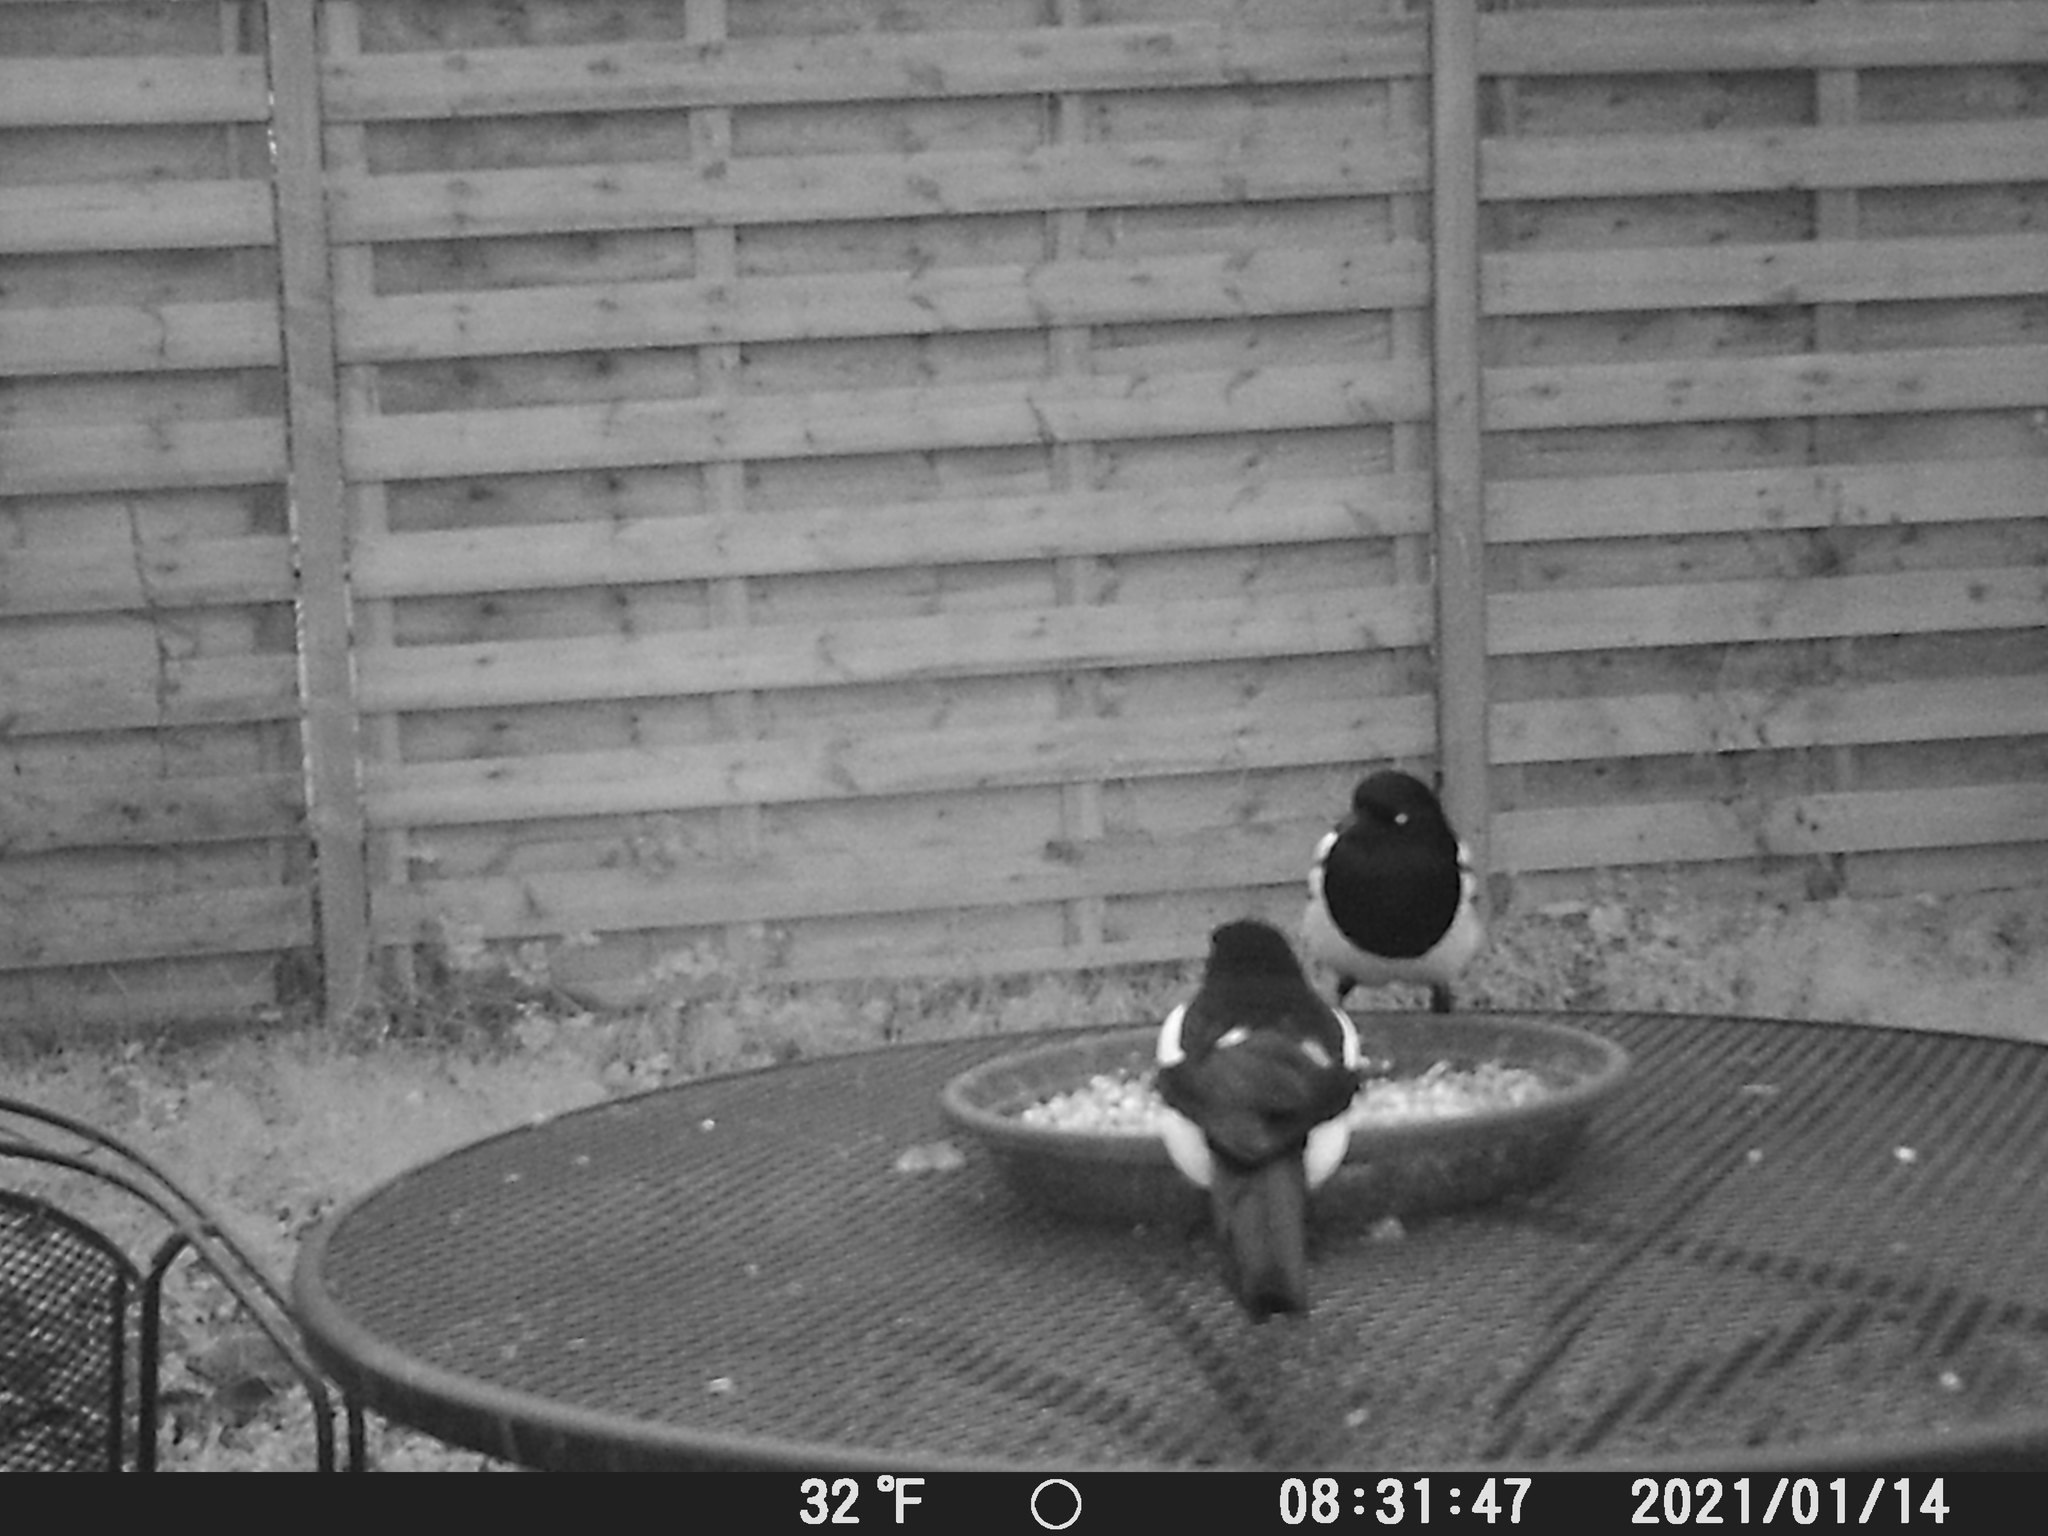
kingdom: Animalia
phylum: Chordata
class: Aves
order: Passeriformes
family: Corvidae
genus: Pica
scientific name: Pica pica
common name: Eurasian magpie
